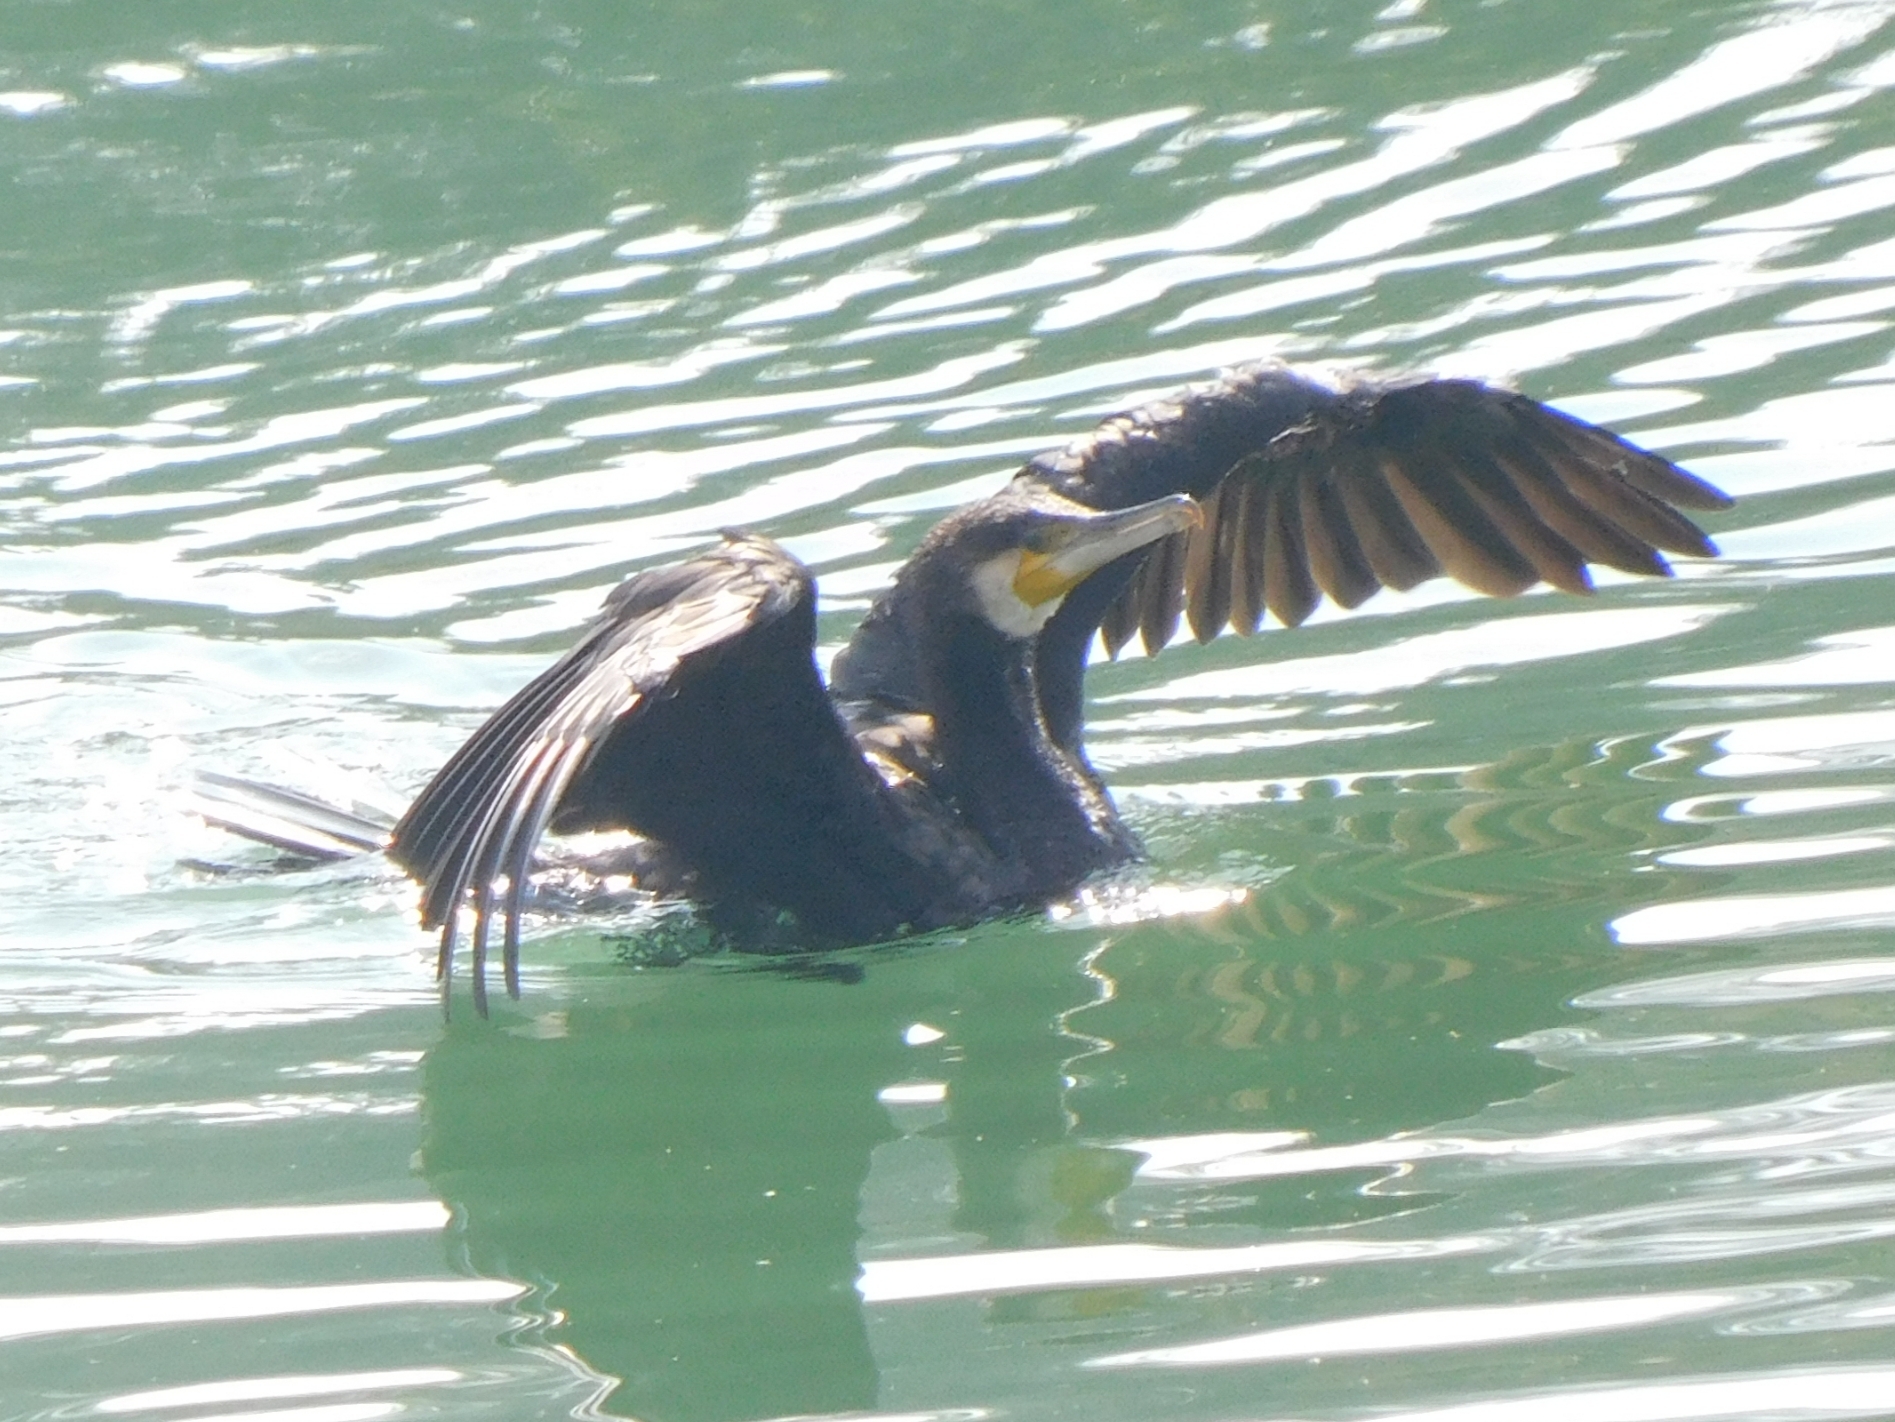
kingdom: Animalia
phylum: Chordata
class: Aves
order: Suliformes
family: Phalacrocoracidae
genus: Phalacrocorax
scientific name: Phalacrocorax carbo
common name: Great cormorant
